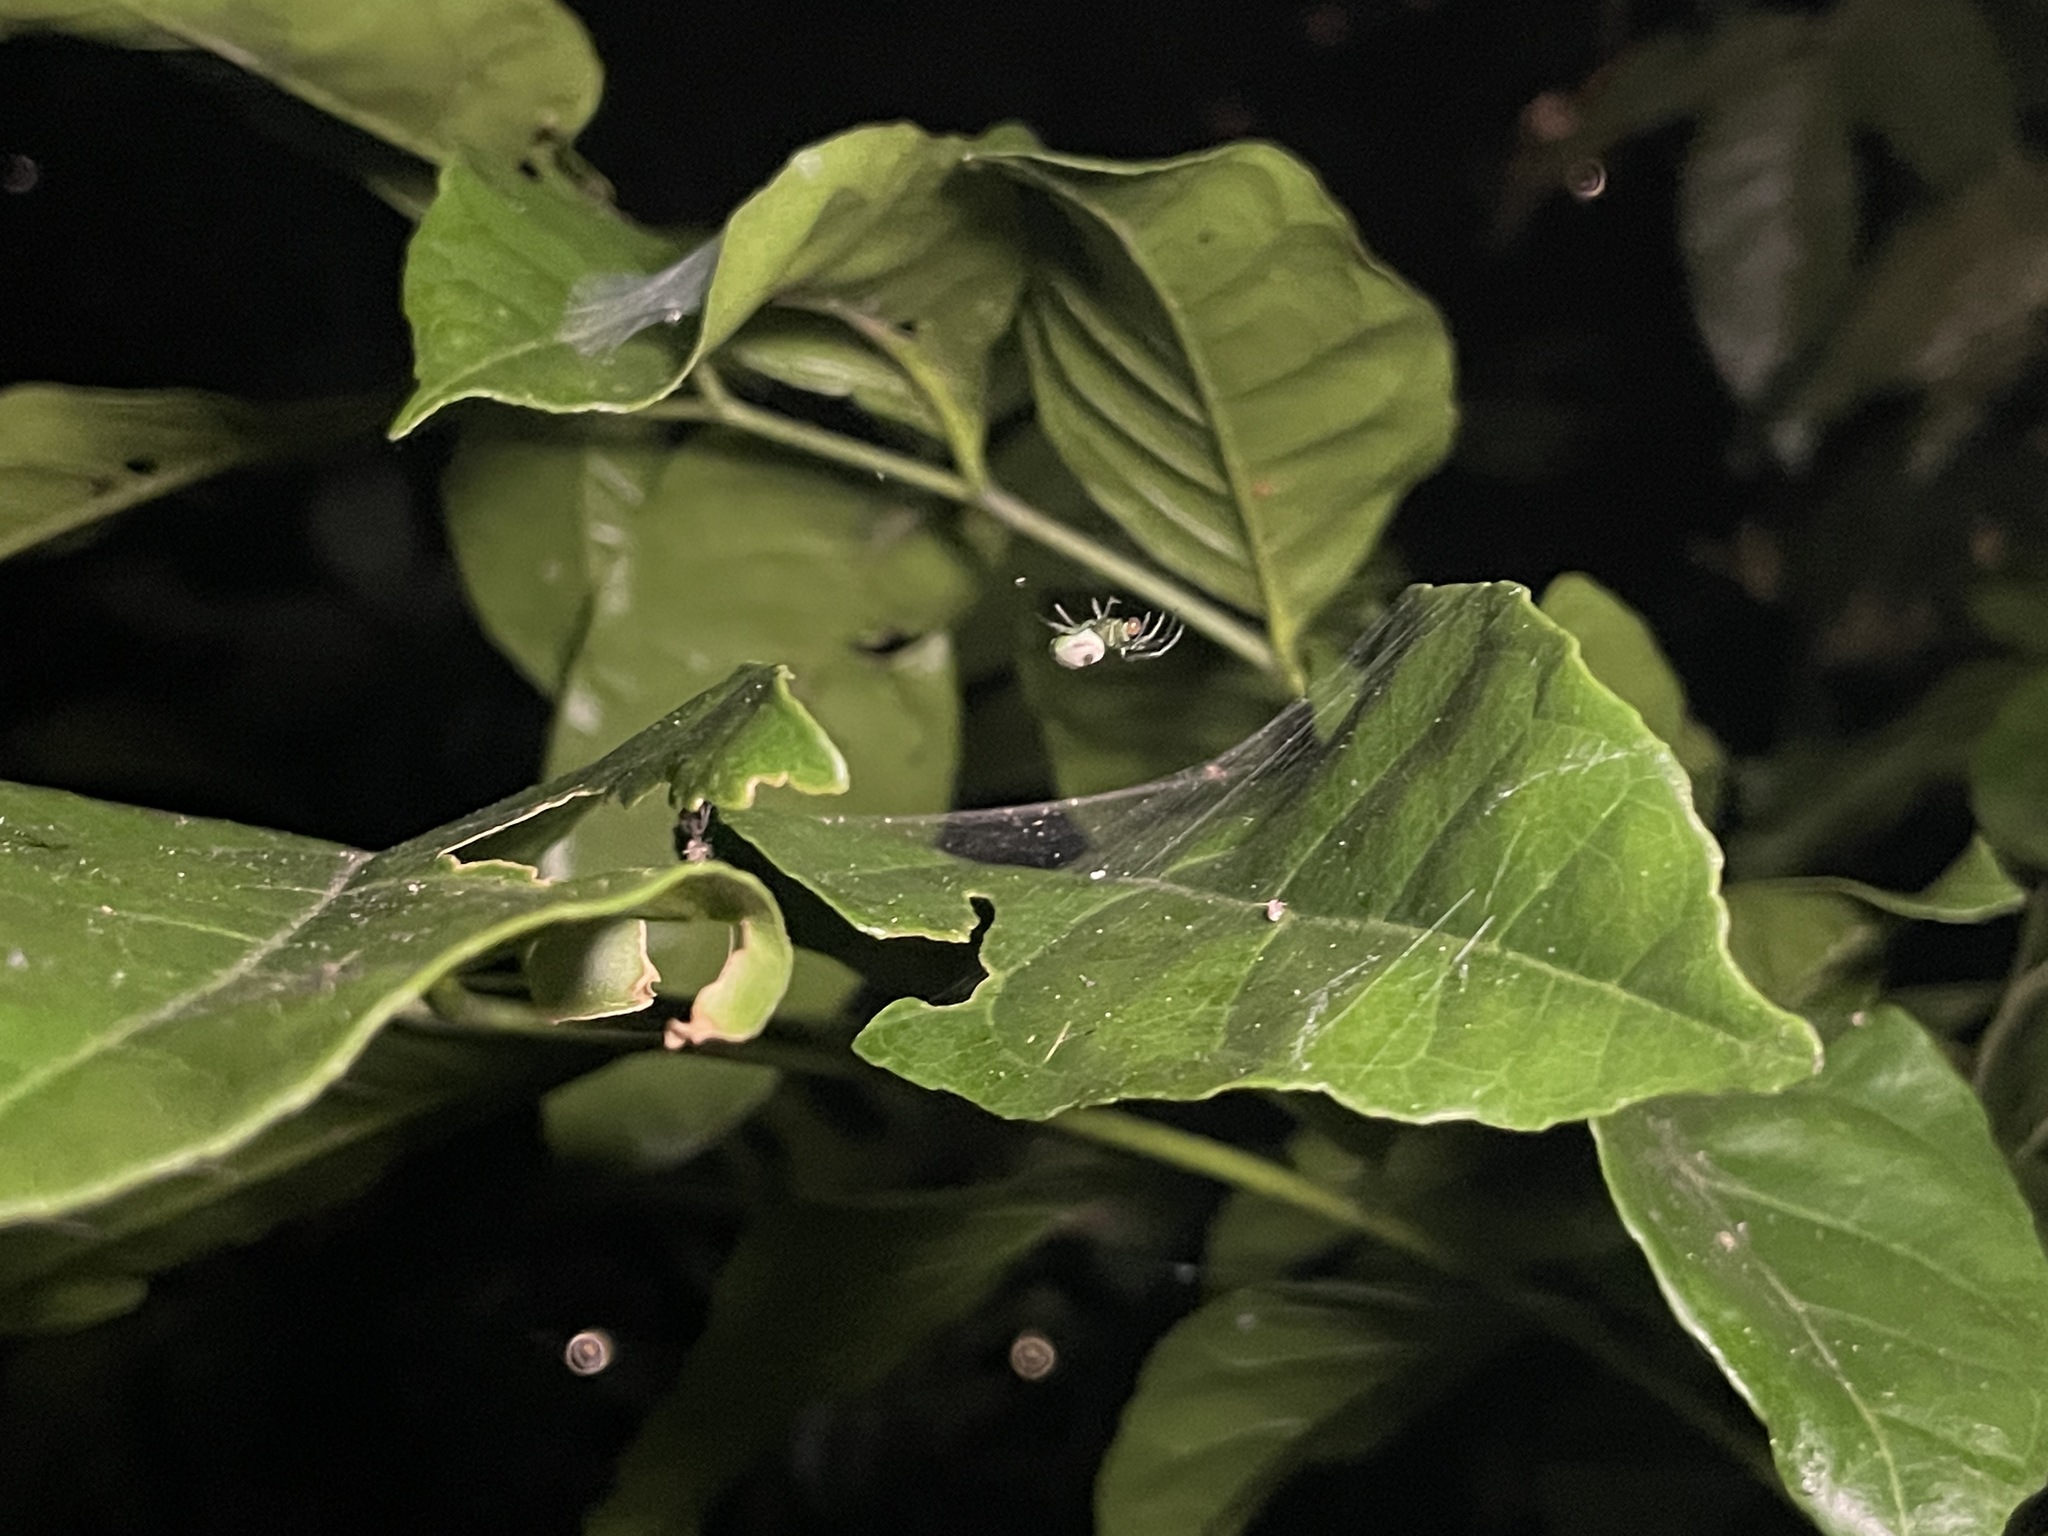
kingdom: Animalia
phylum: Arthropoda
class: Arachnida
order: Araneae
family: Araneidae
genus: Bijoaraneus
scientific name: Bijoaraneus mitificus
